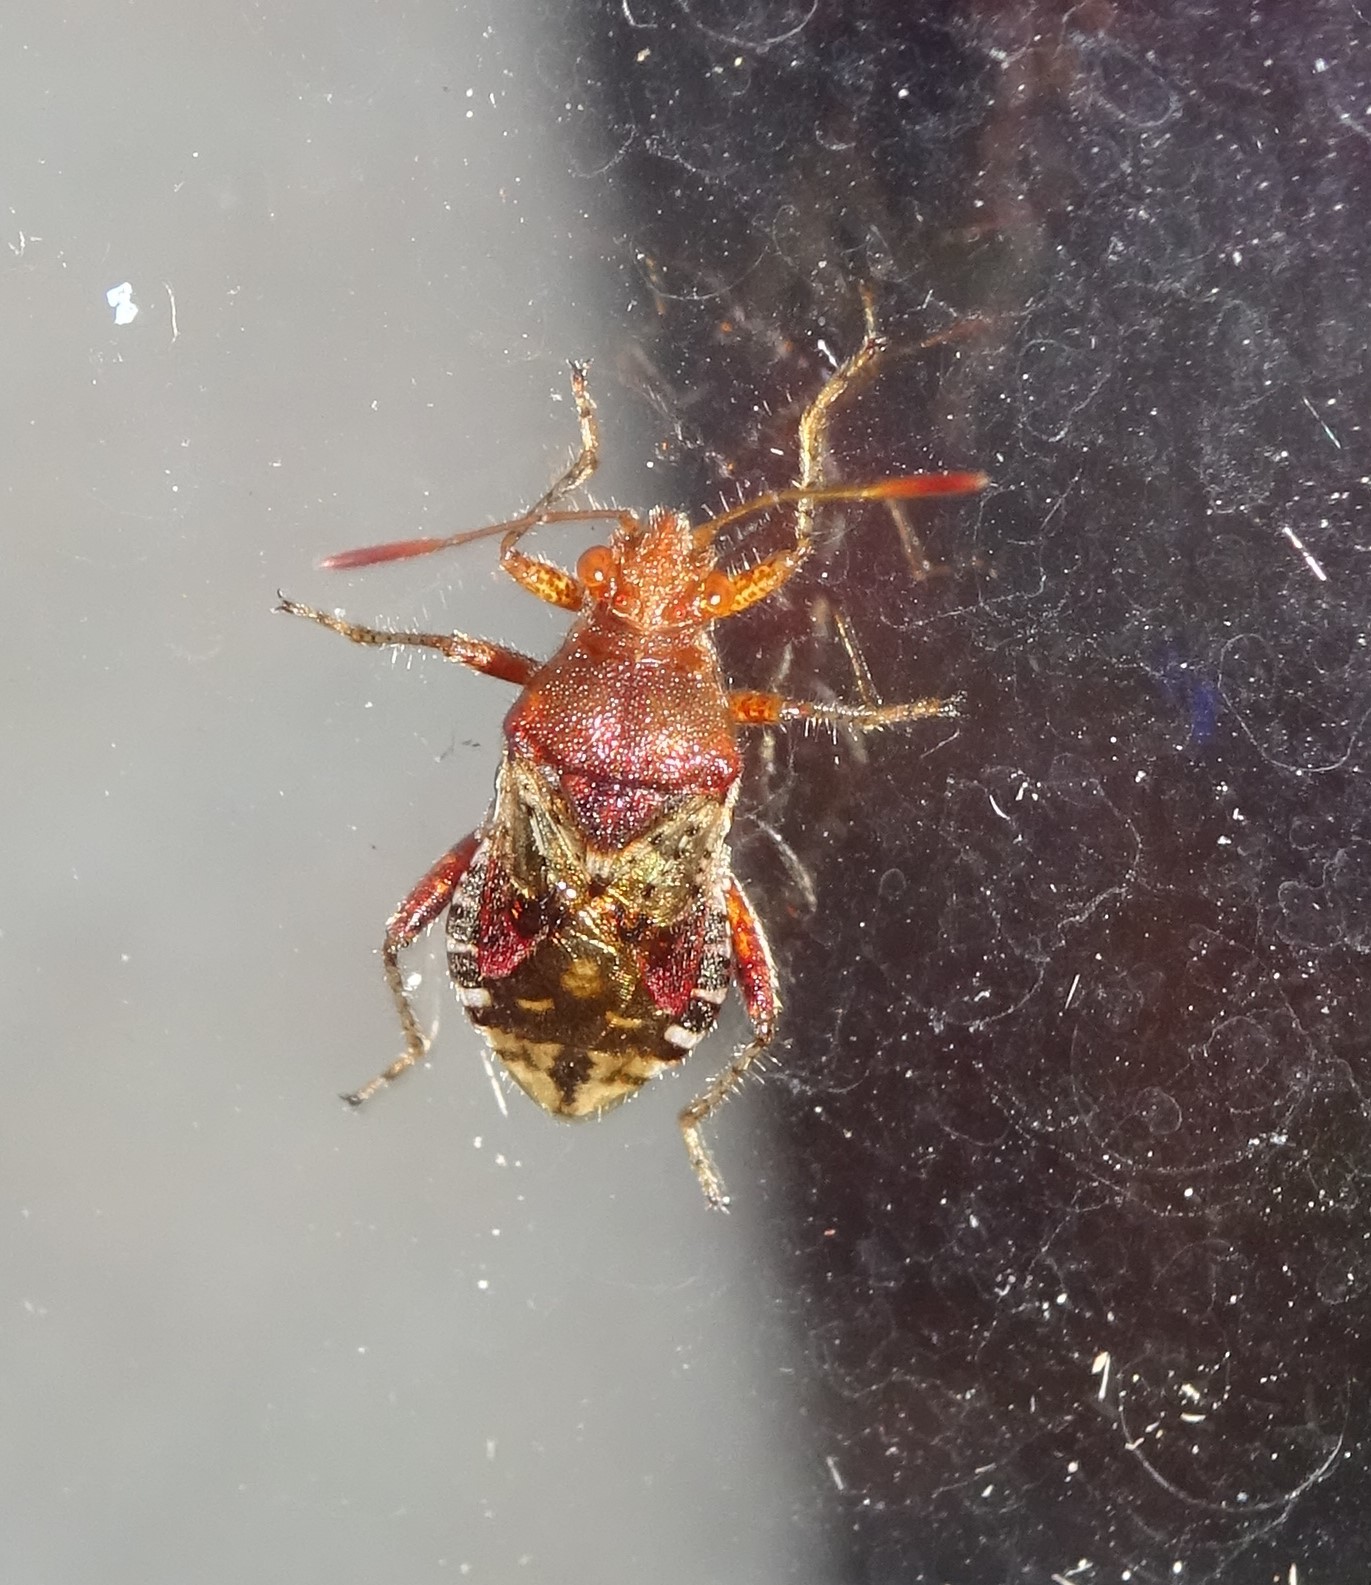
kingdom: Animalia
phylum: Arthropoda
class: Insecta
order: Hemiptera
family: Rhopalidae
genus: Rhopalus
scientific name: Rhopalus subrufus
